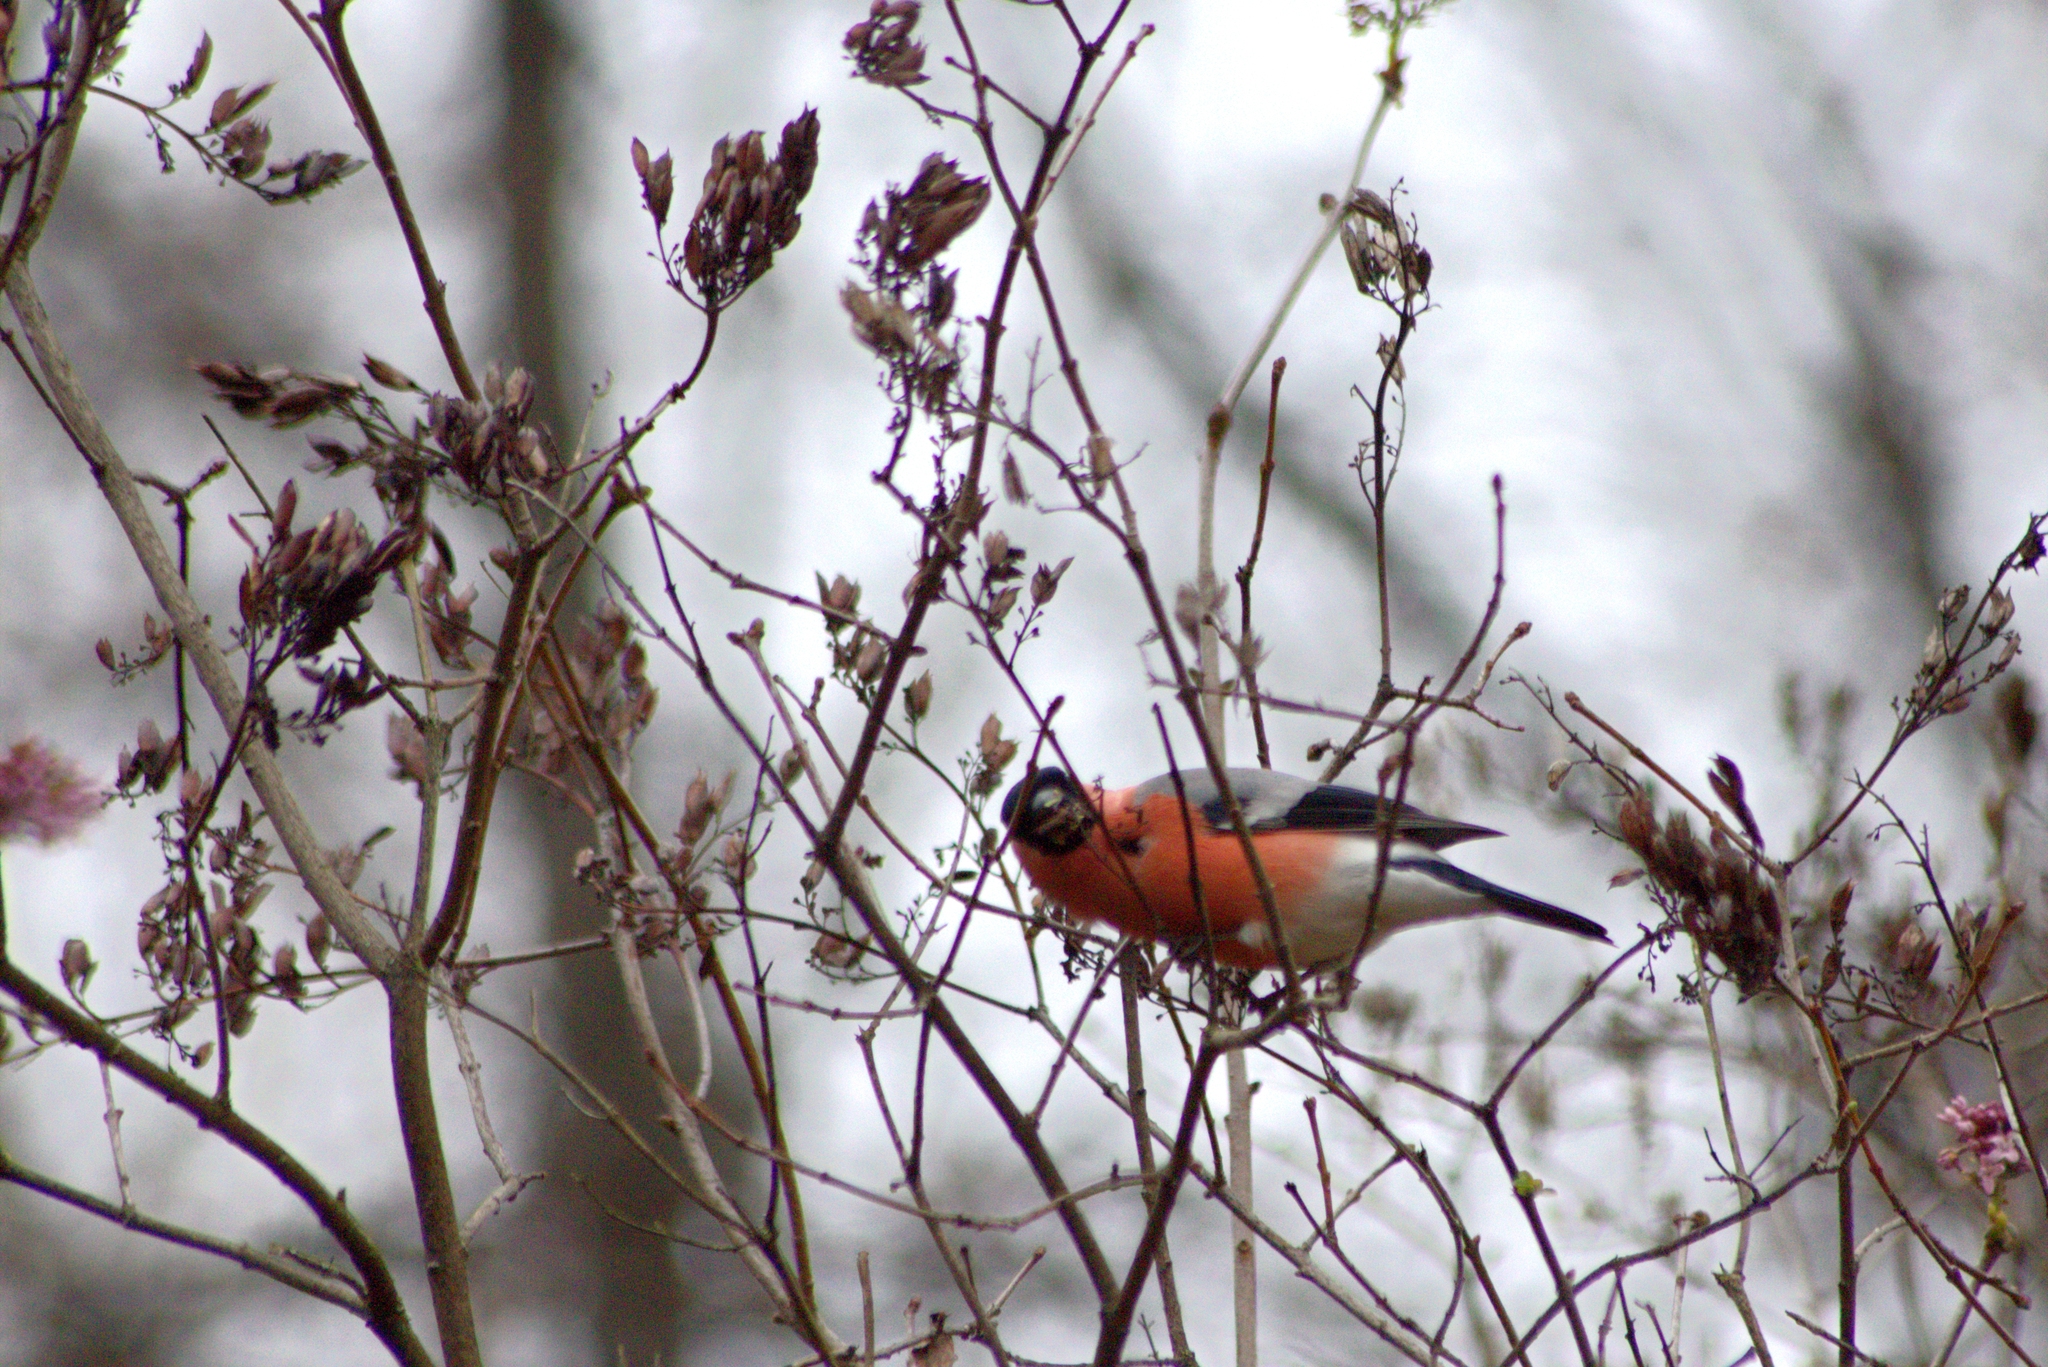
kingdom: Animalia
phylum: Chordata
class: Aves
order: Passeriformes
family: Fringillidae
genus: Pyrrhula
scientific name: Pyrrhula pyrrhula
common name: Eurasian bullfinch
